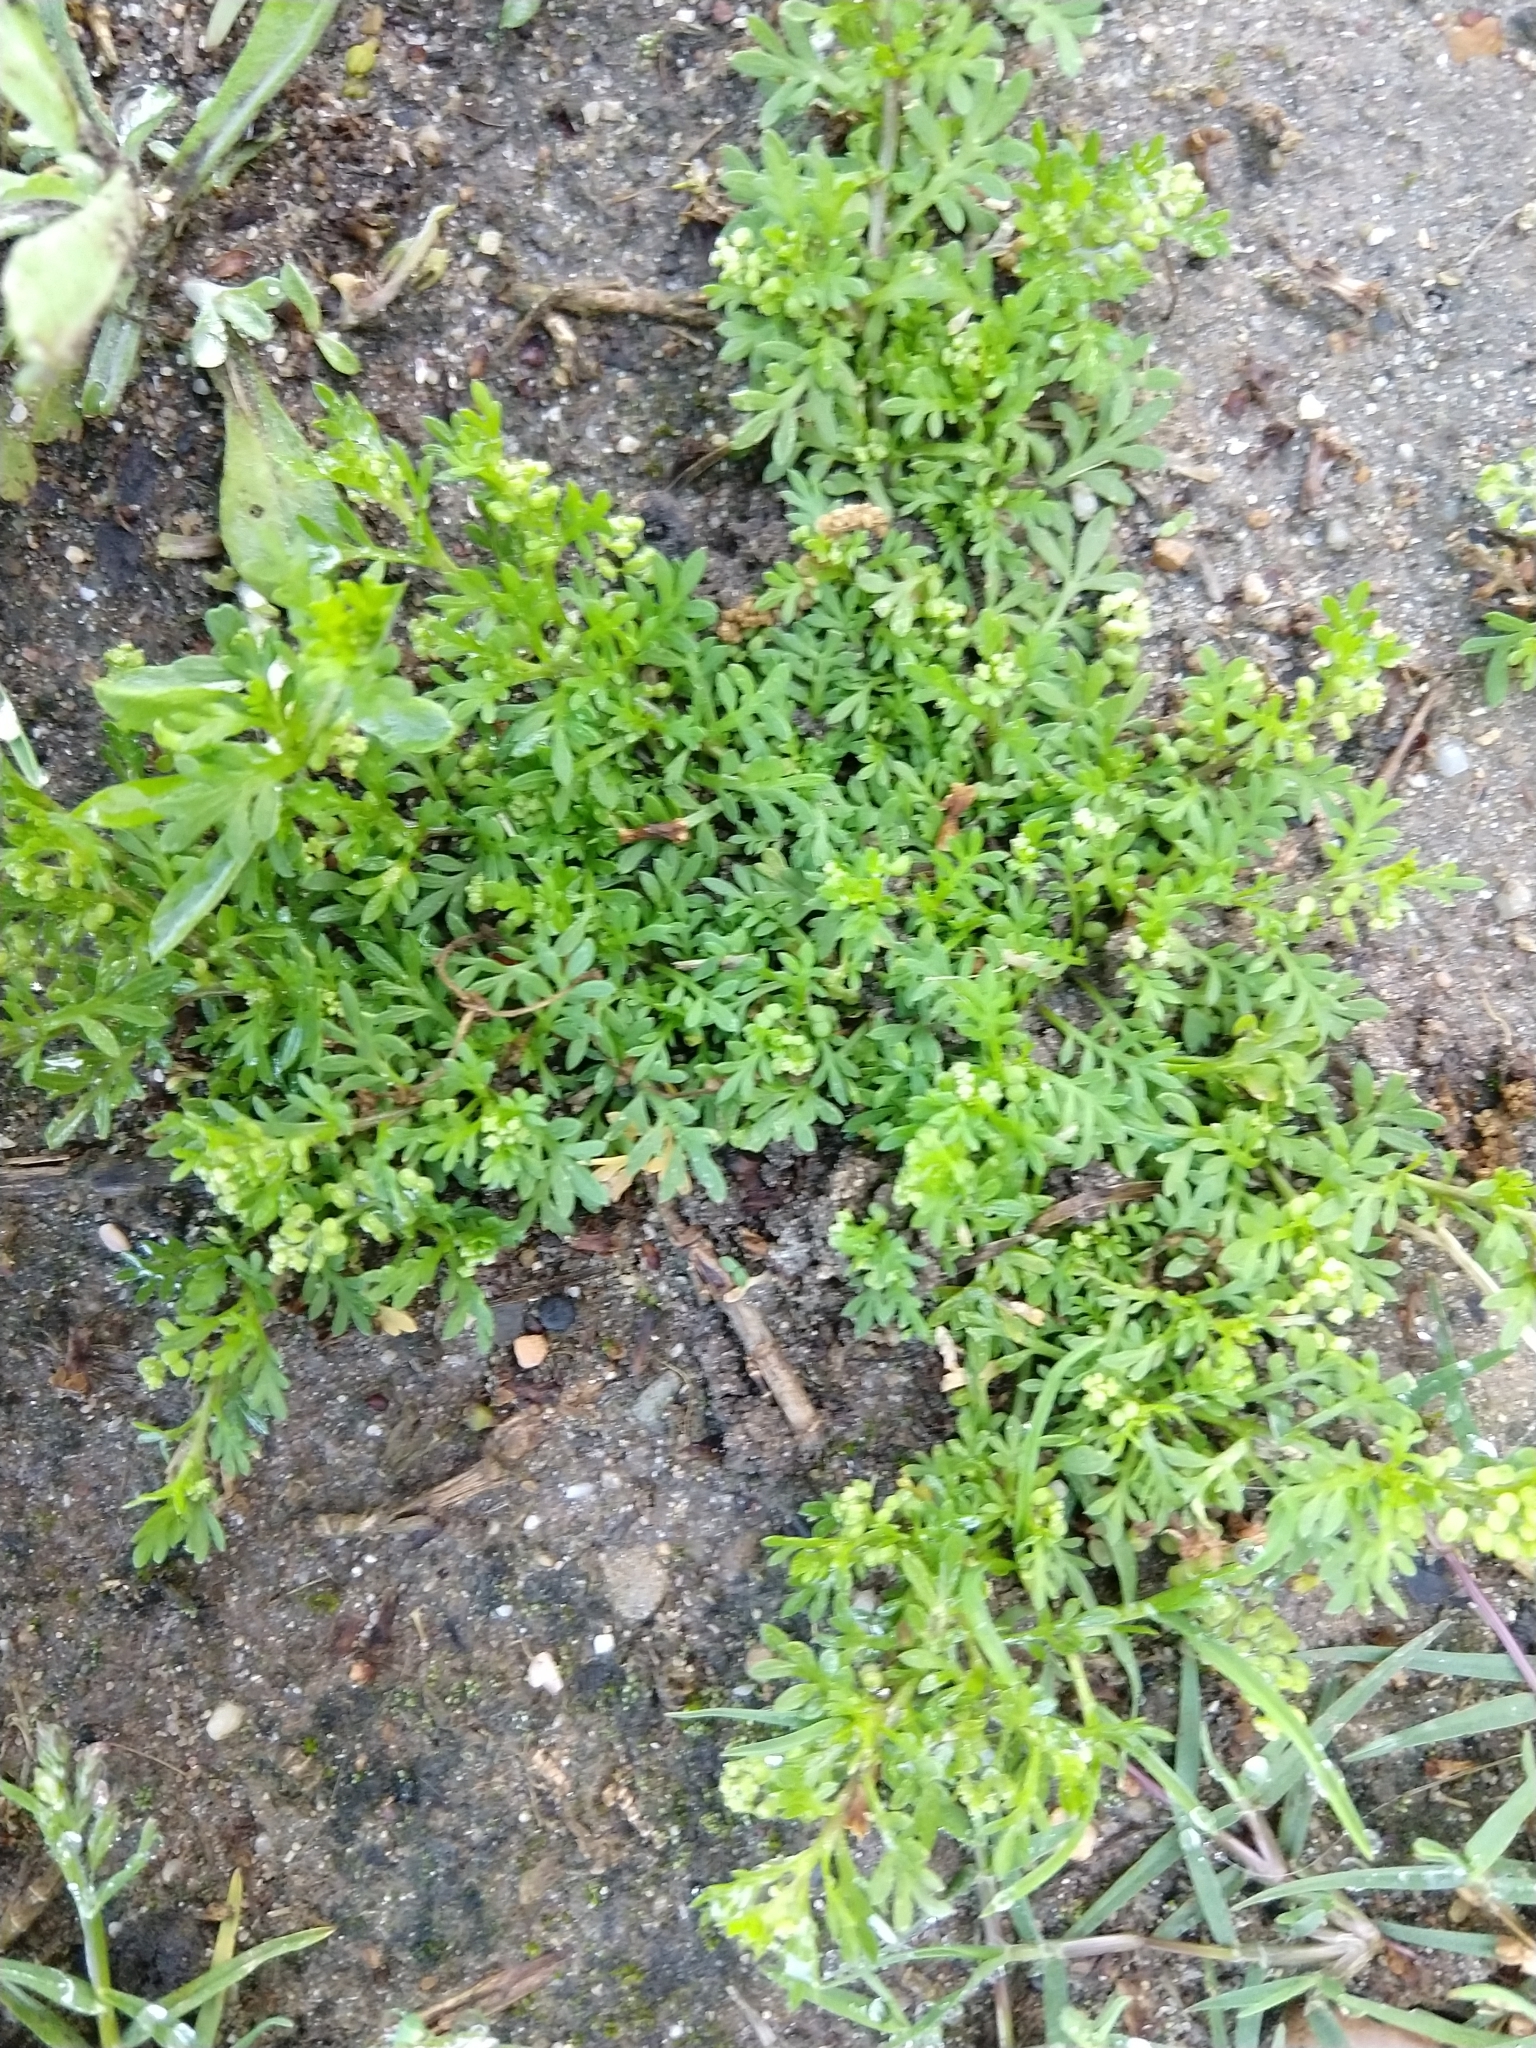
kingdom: Plantae
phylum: Tracheophyta
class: Magnoliopsida
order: Brassicales
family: Brassicaceae
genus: Lepidium
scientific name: Lepidium didymum
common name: Lesser swinecress
